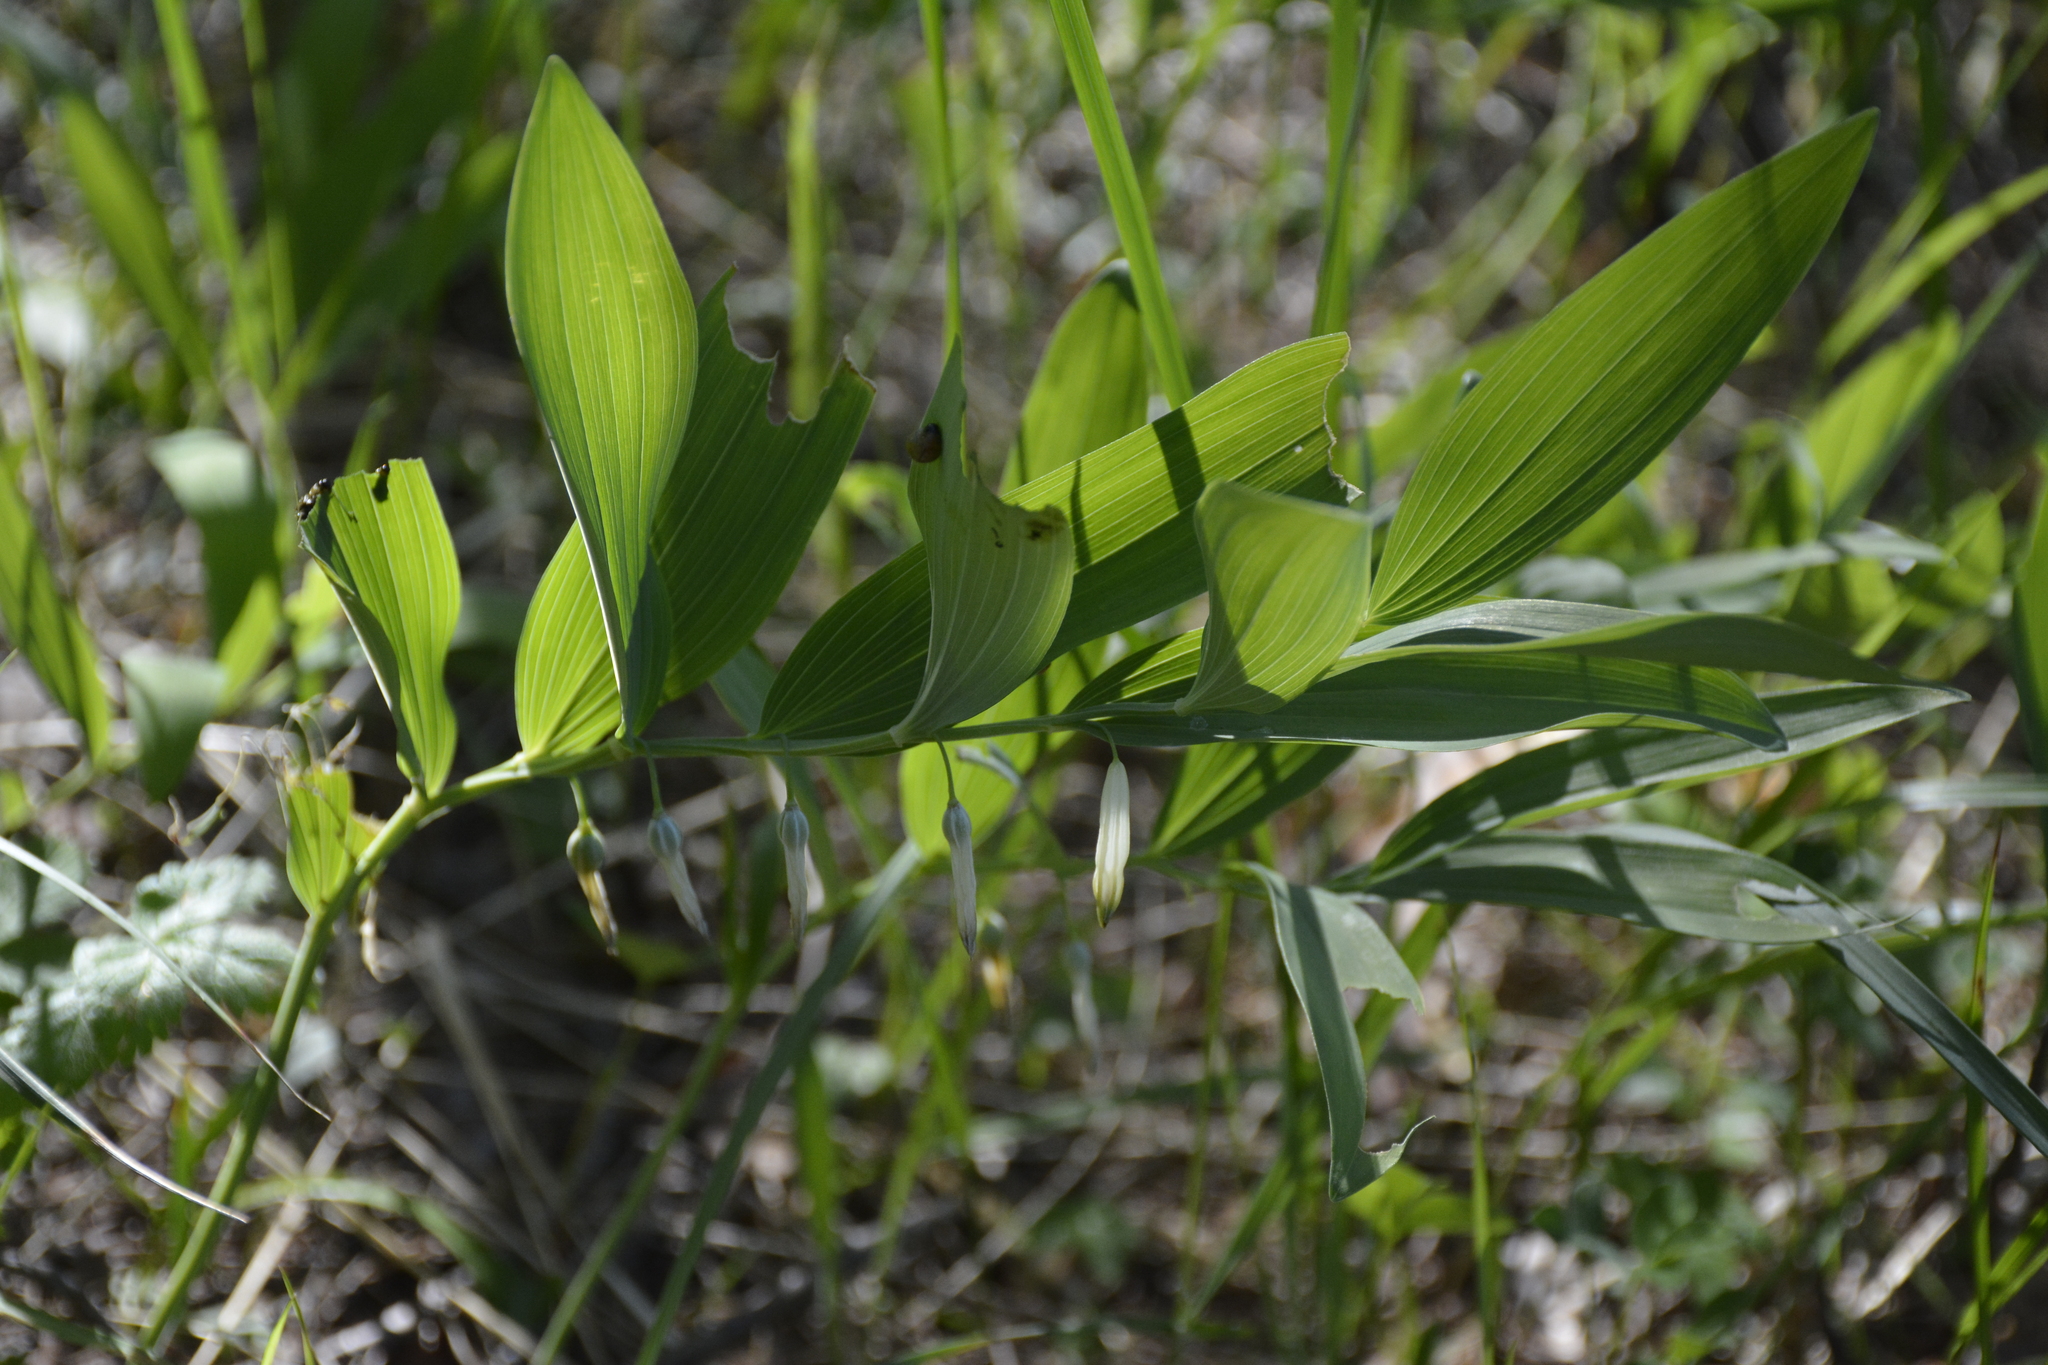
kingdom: Plantae
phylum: Tracheophyta
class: Liliopsida
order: Asparagales
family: Asparagaceae
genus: Polygonatum
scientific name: Polygonatum odoratum
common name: Angular solomon's-seal
